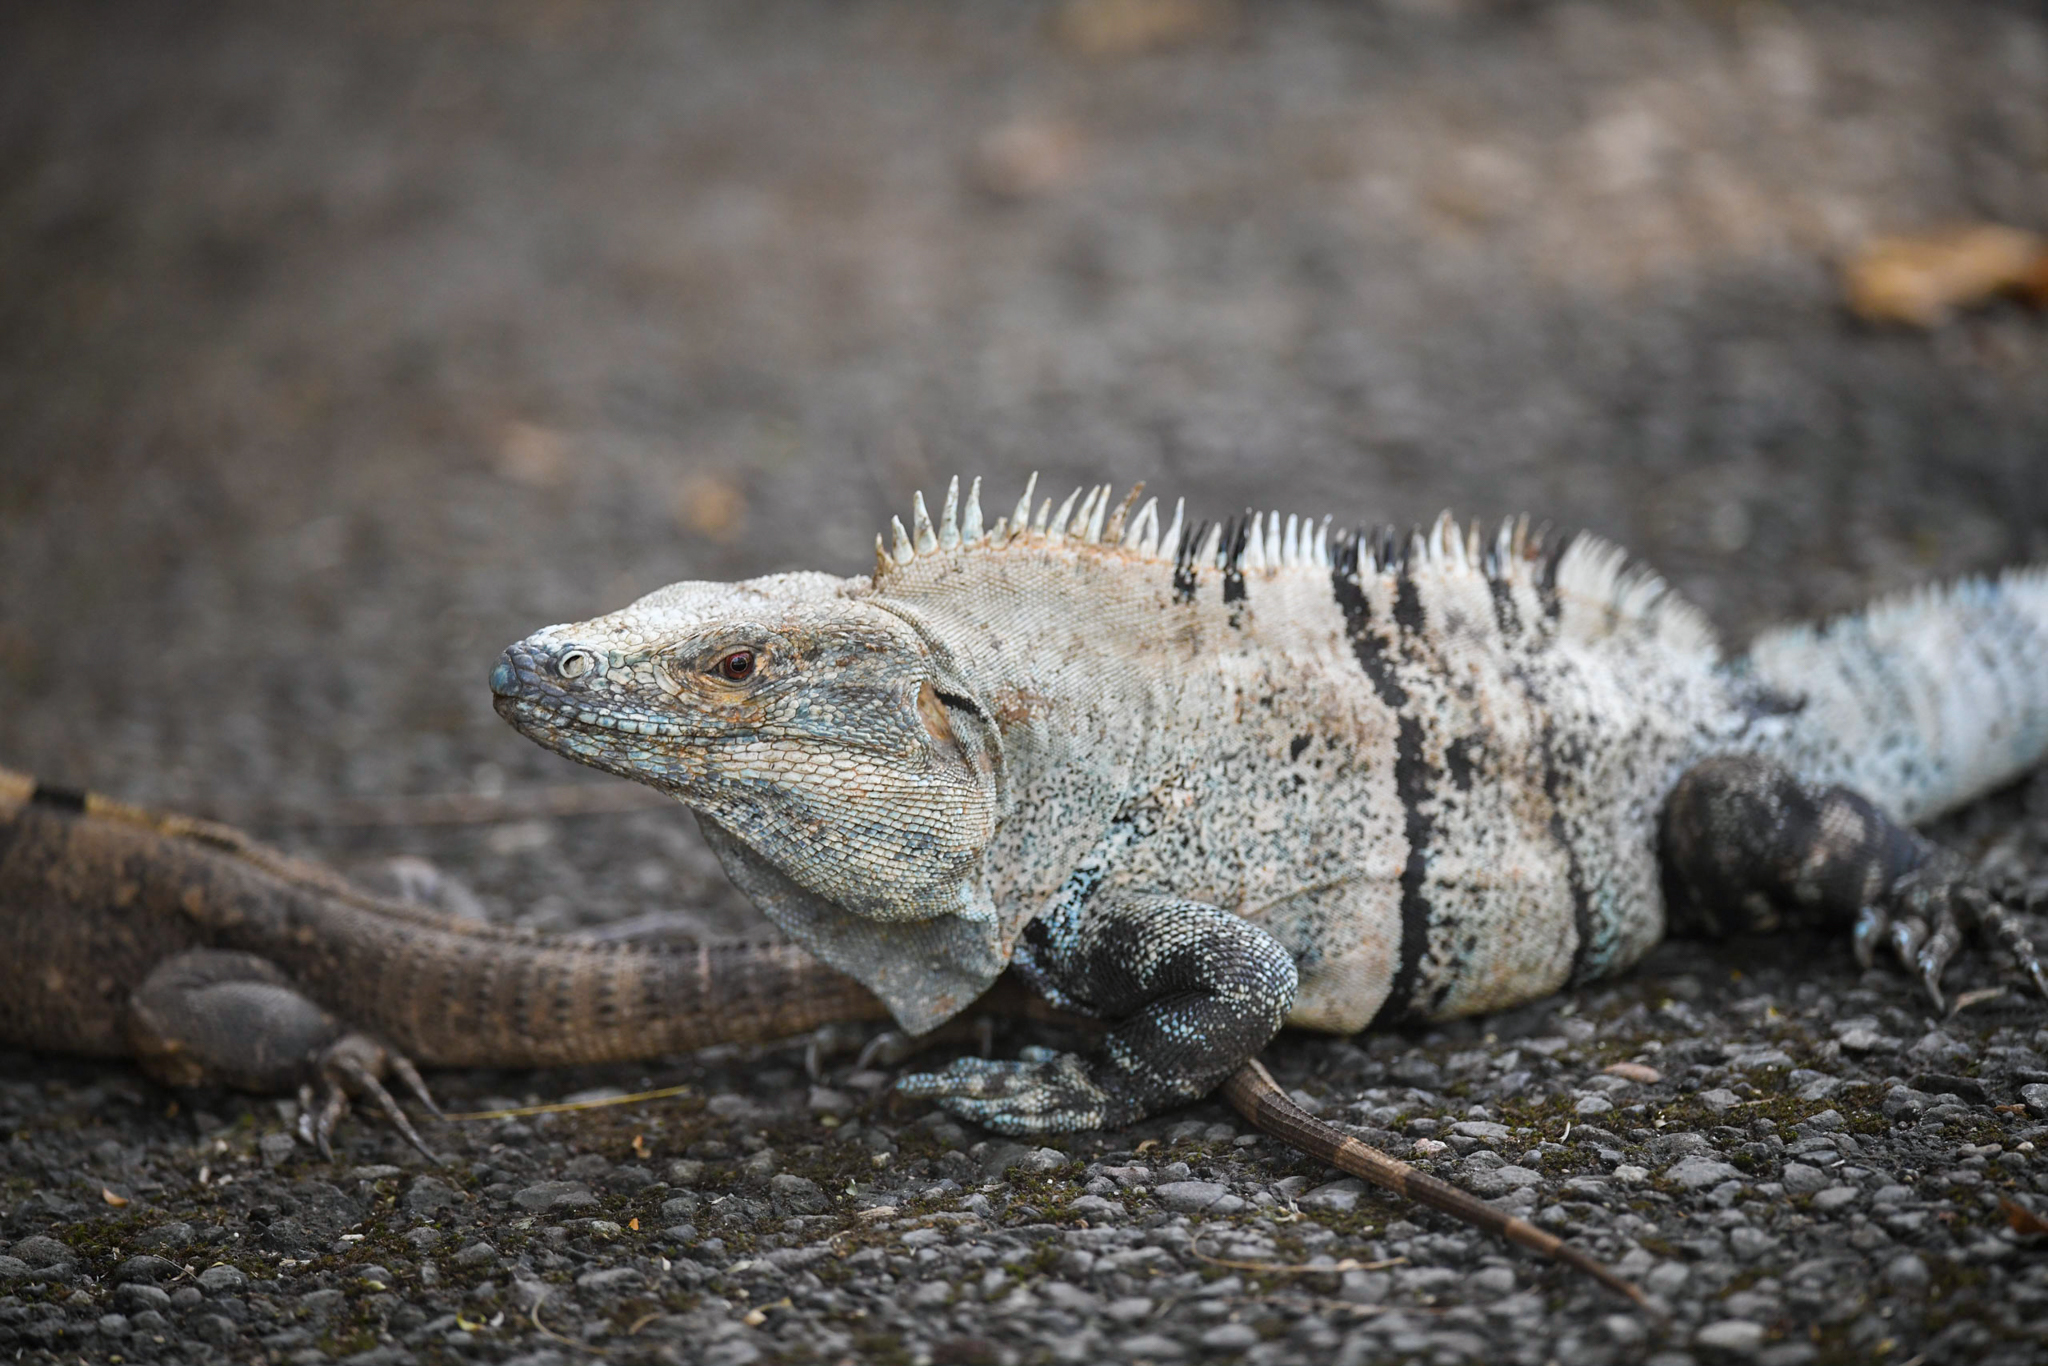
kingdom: Animalia
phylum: Chordata
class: Squamata
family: Iguanidae
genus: Ctenosaura
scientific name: Ctenosaura similis
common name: Black spiny-tailed iguana
